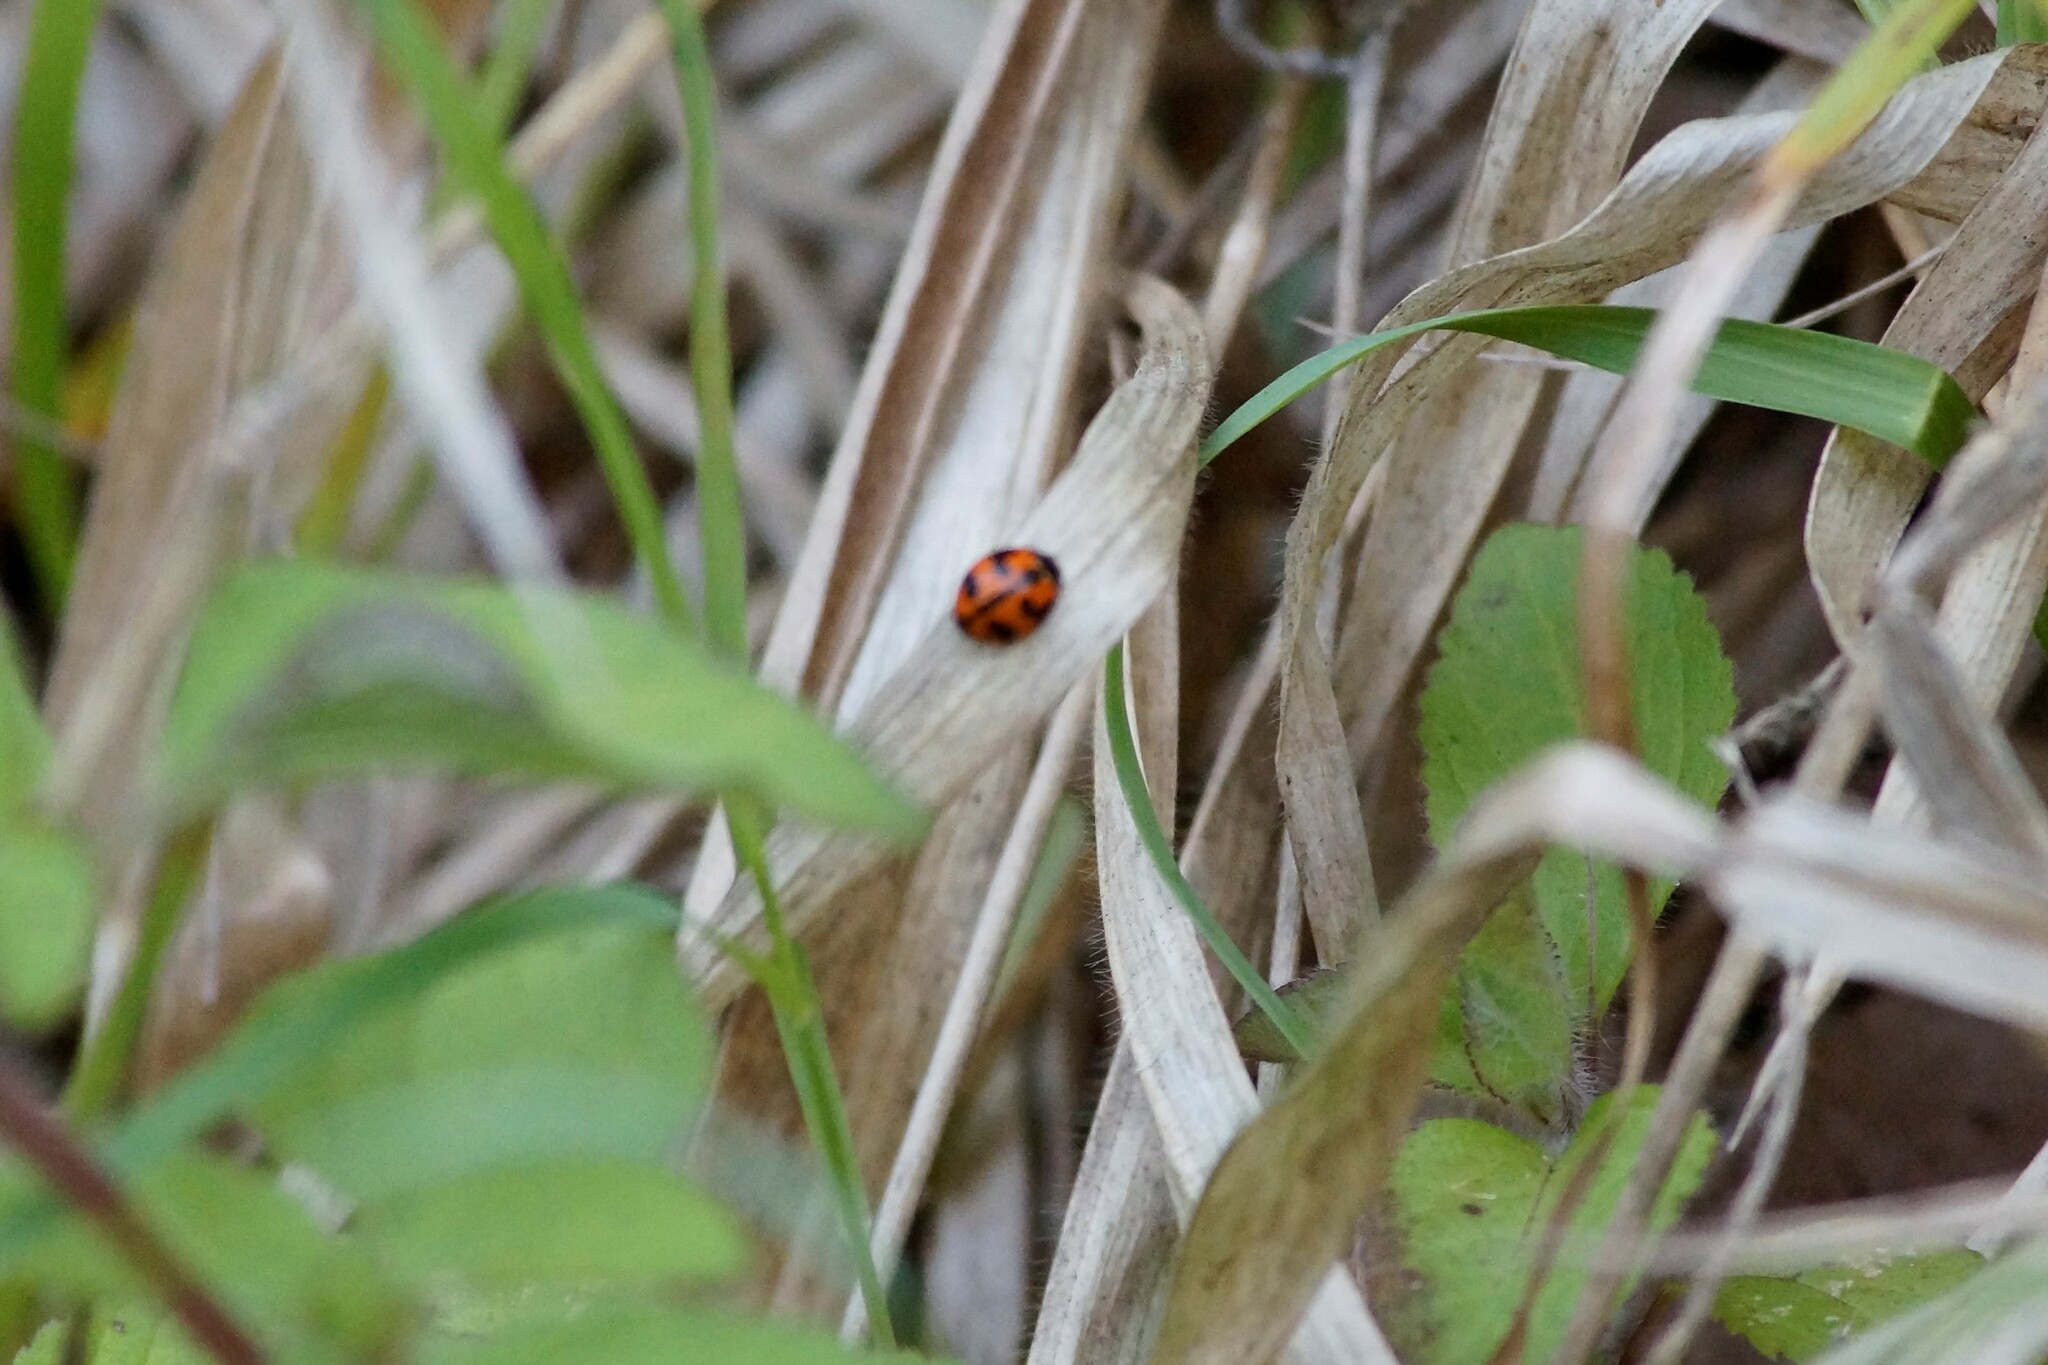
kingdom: Animalia
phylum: Arthropoda
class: Insecta
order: Coleoptera
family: Coccinellidae
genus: Coccinella
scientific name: Coccinella transversalis
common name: Transverse lady beetle
